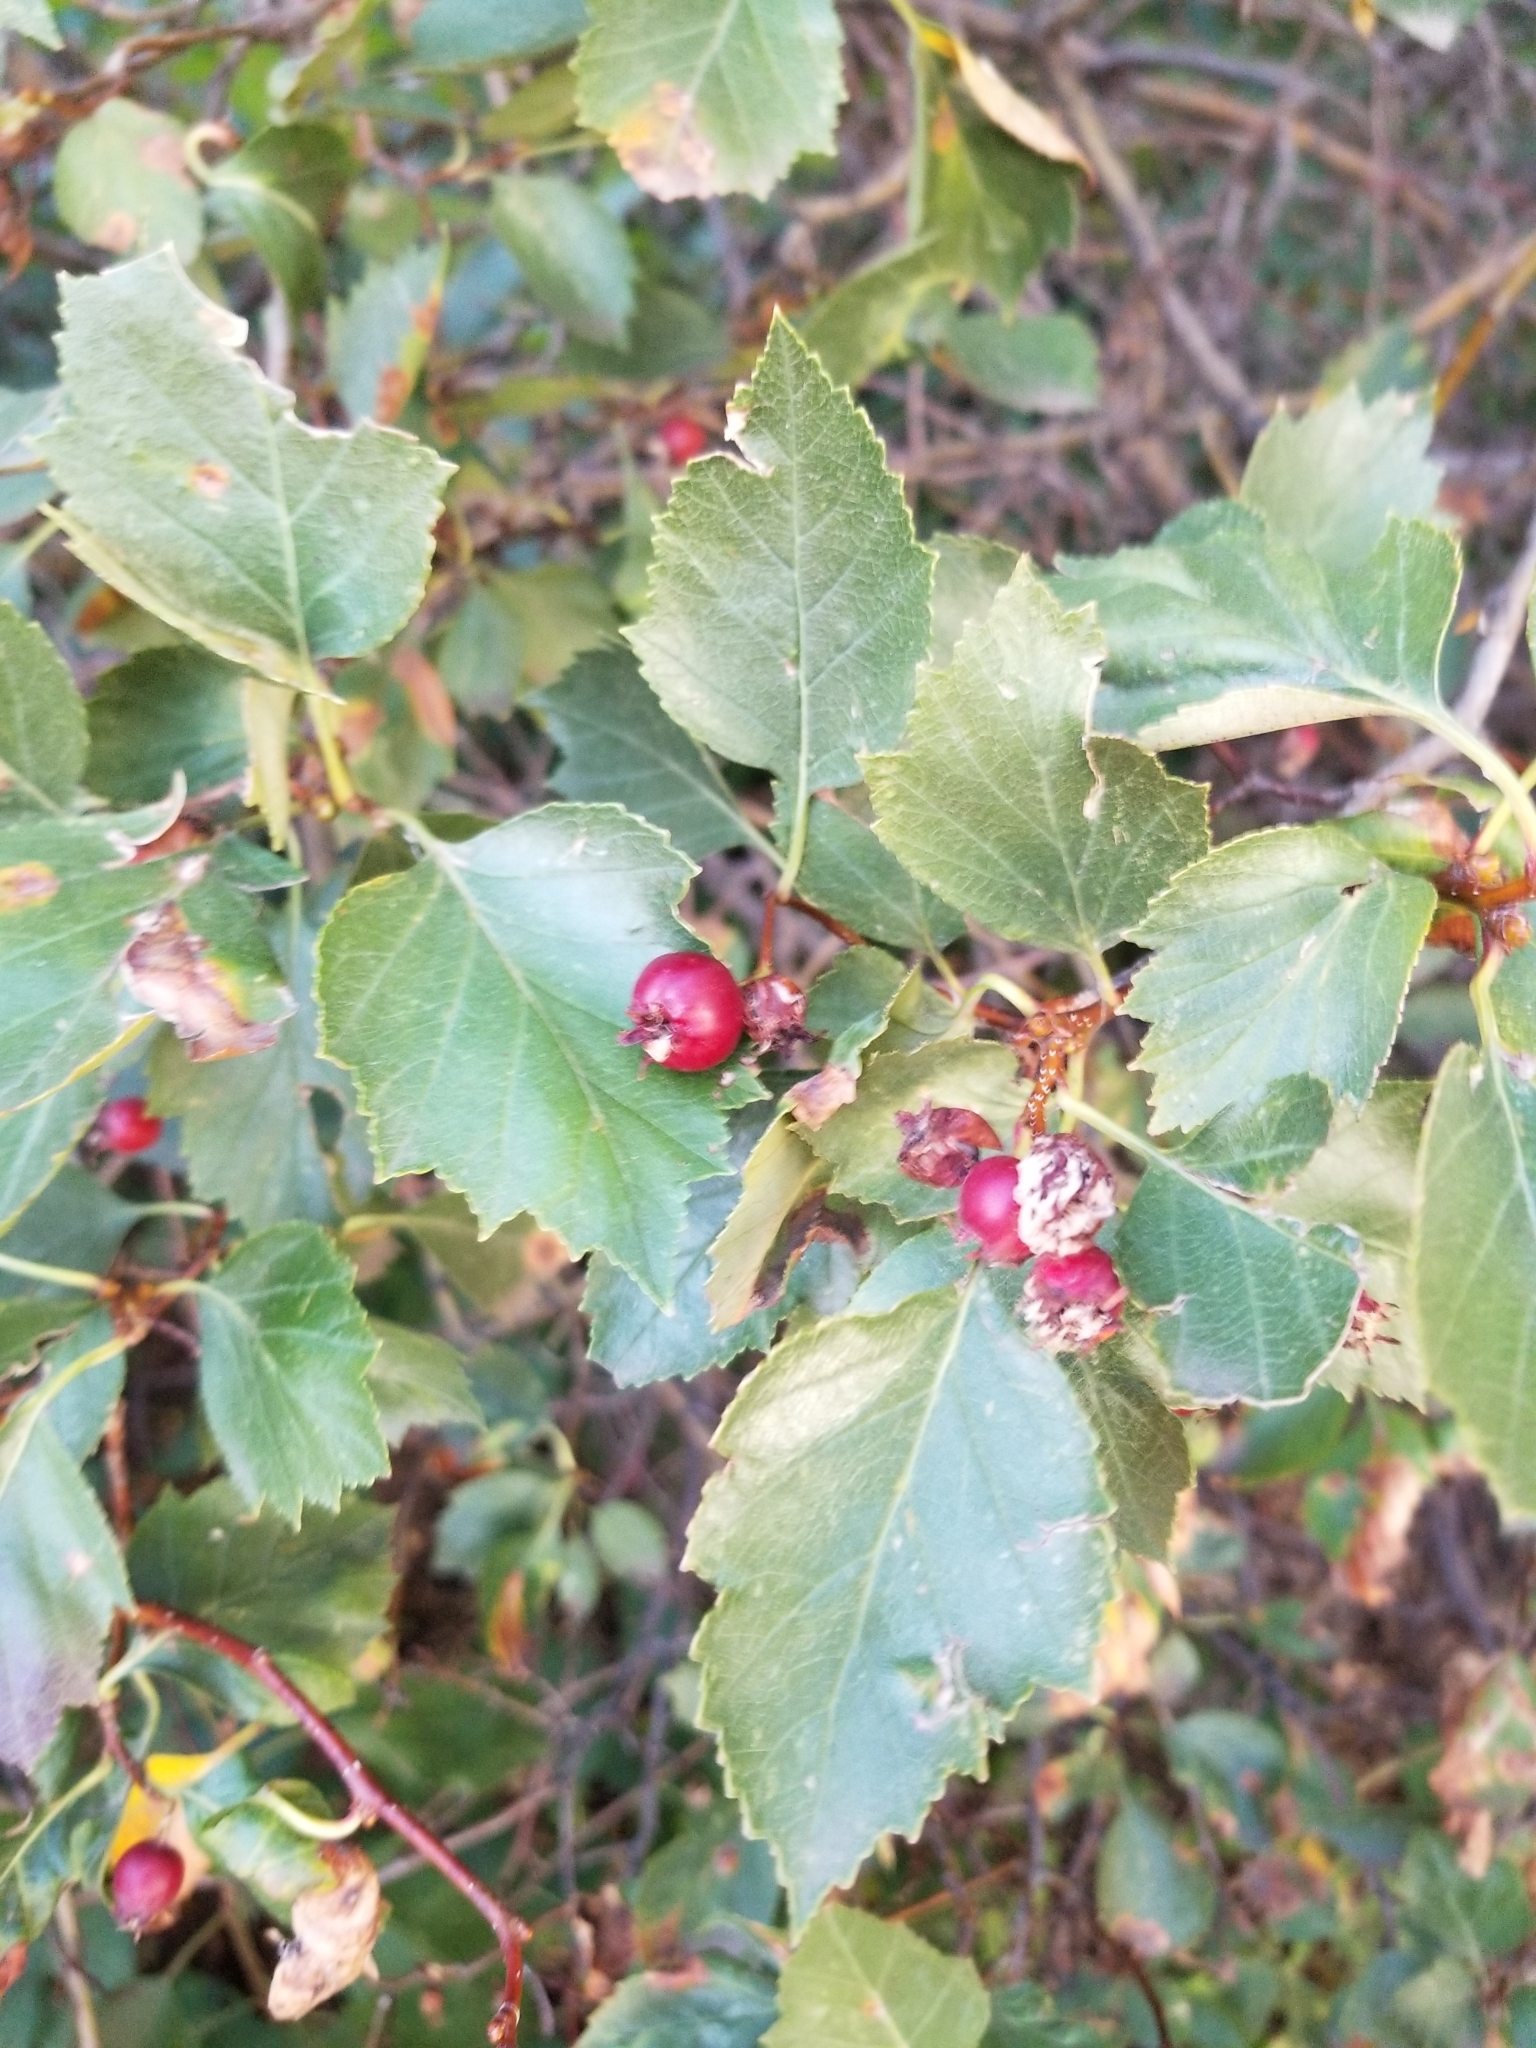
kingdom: Plantae
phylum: Tracheophyta
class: Magnoliopsida
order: Rosales
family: Rosaceae
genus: Crataegus
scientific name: Crataegus monogyna
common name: Hawthorn
